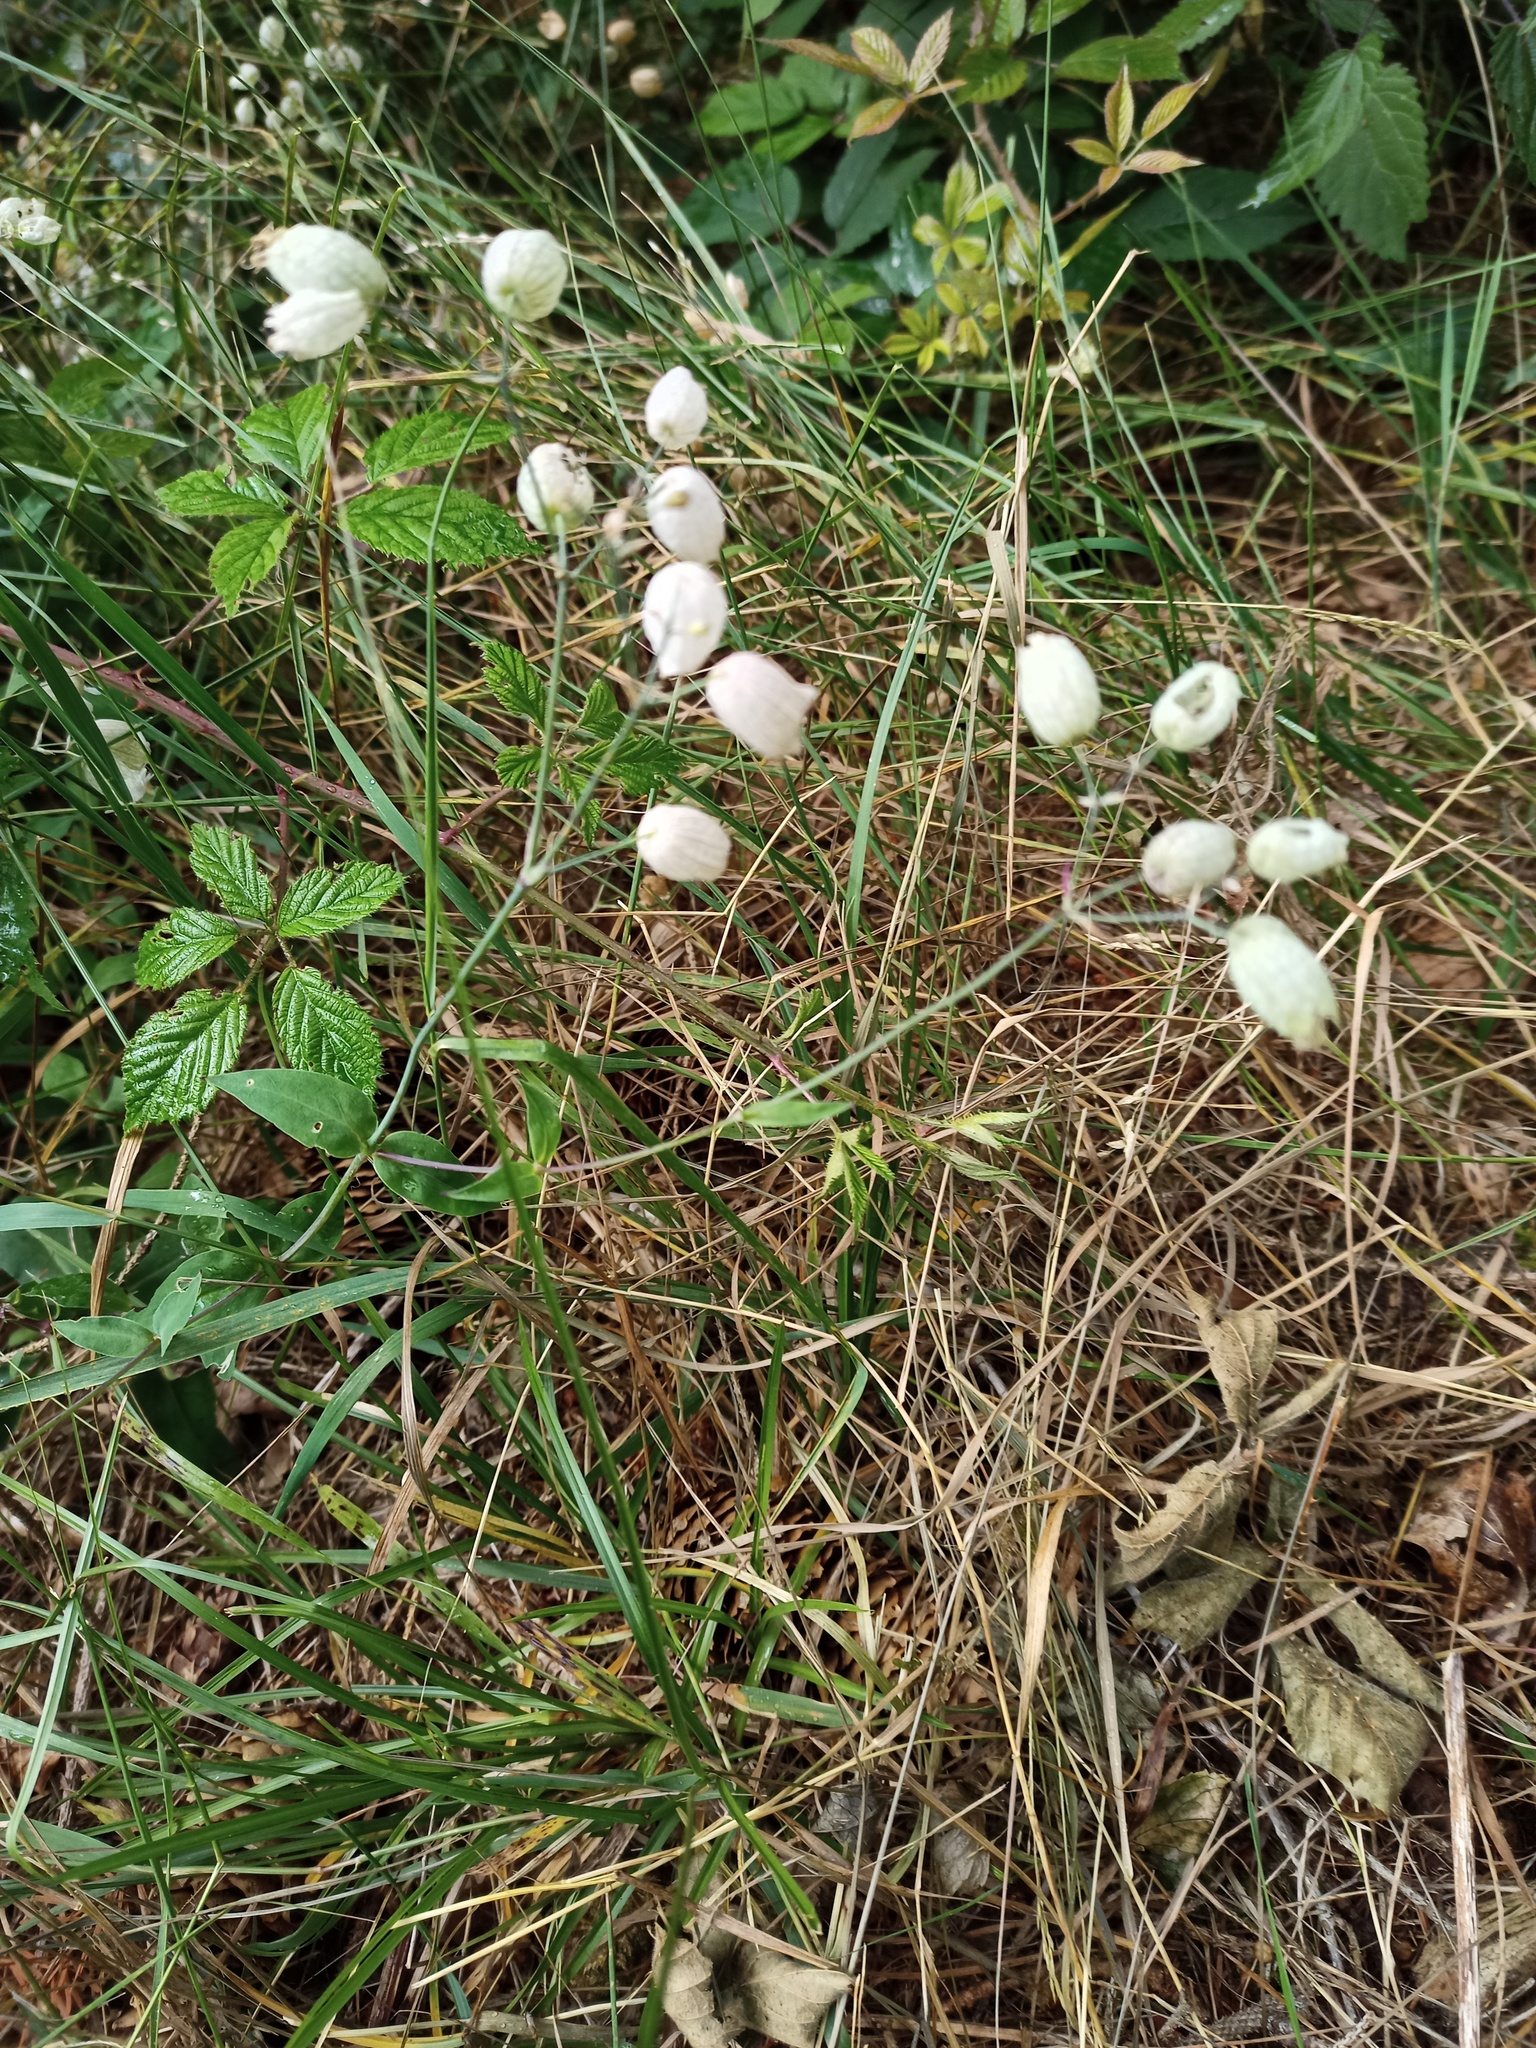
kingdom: Plantae
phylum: Tracheophyta
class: Magnoliopsida
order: Caryophyllales
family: Caryophyllaceae
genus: Silene
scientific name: Silene vulgaris
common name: Bladder campion
